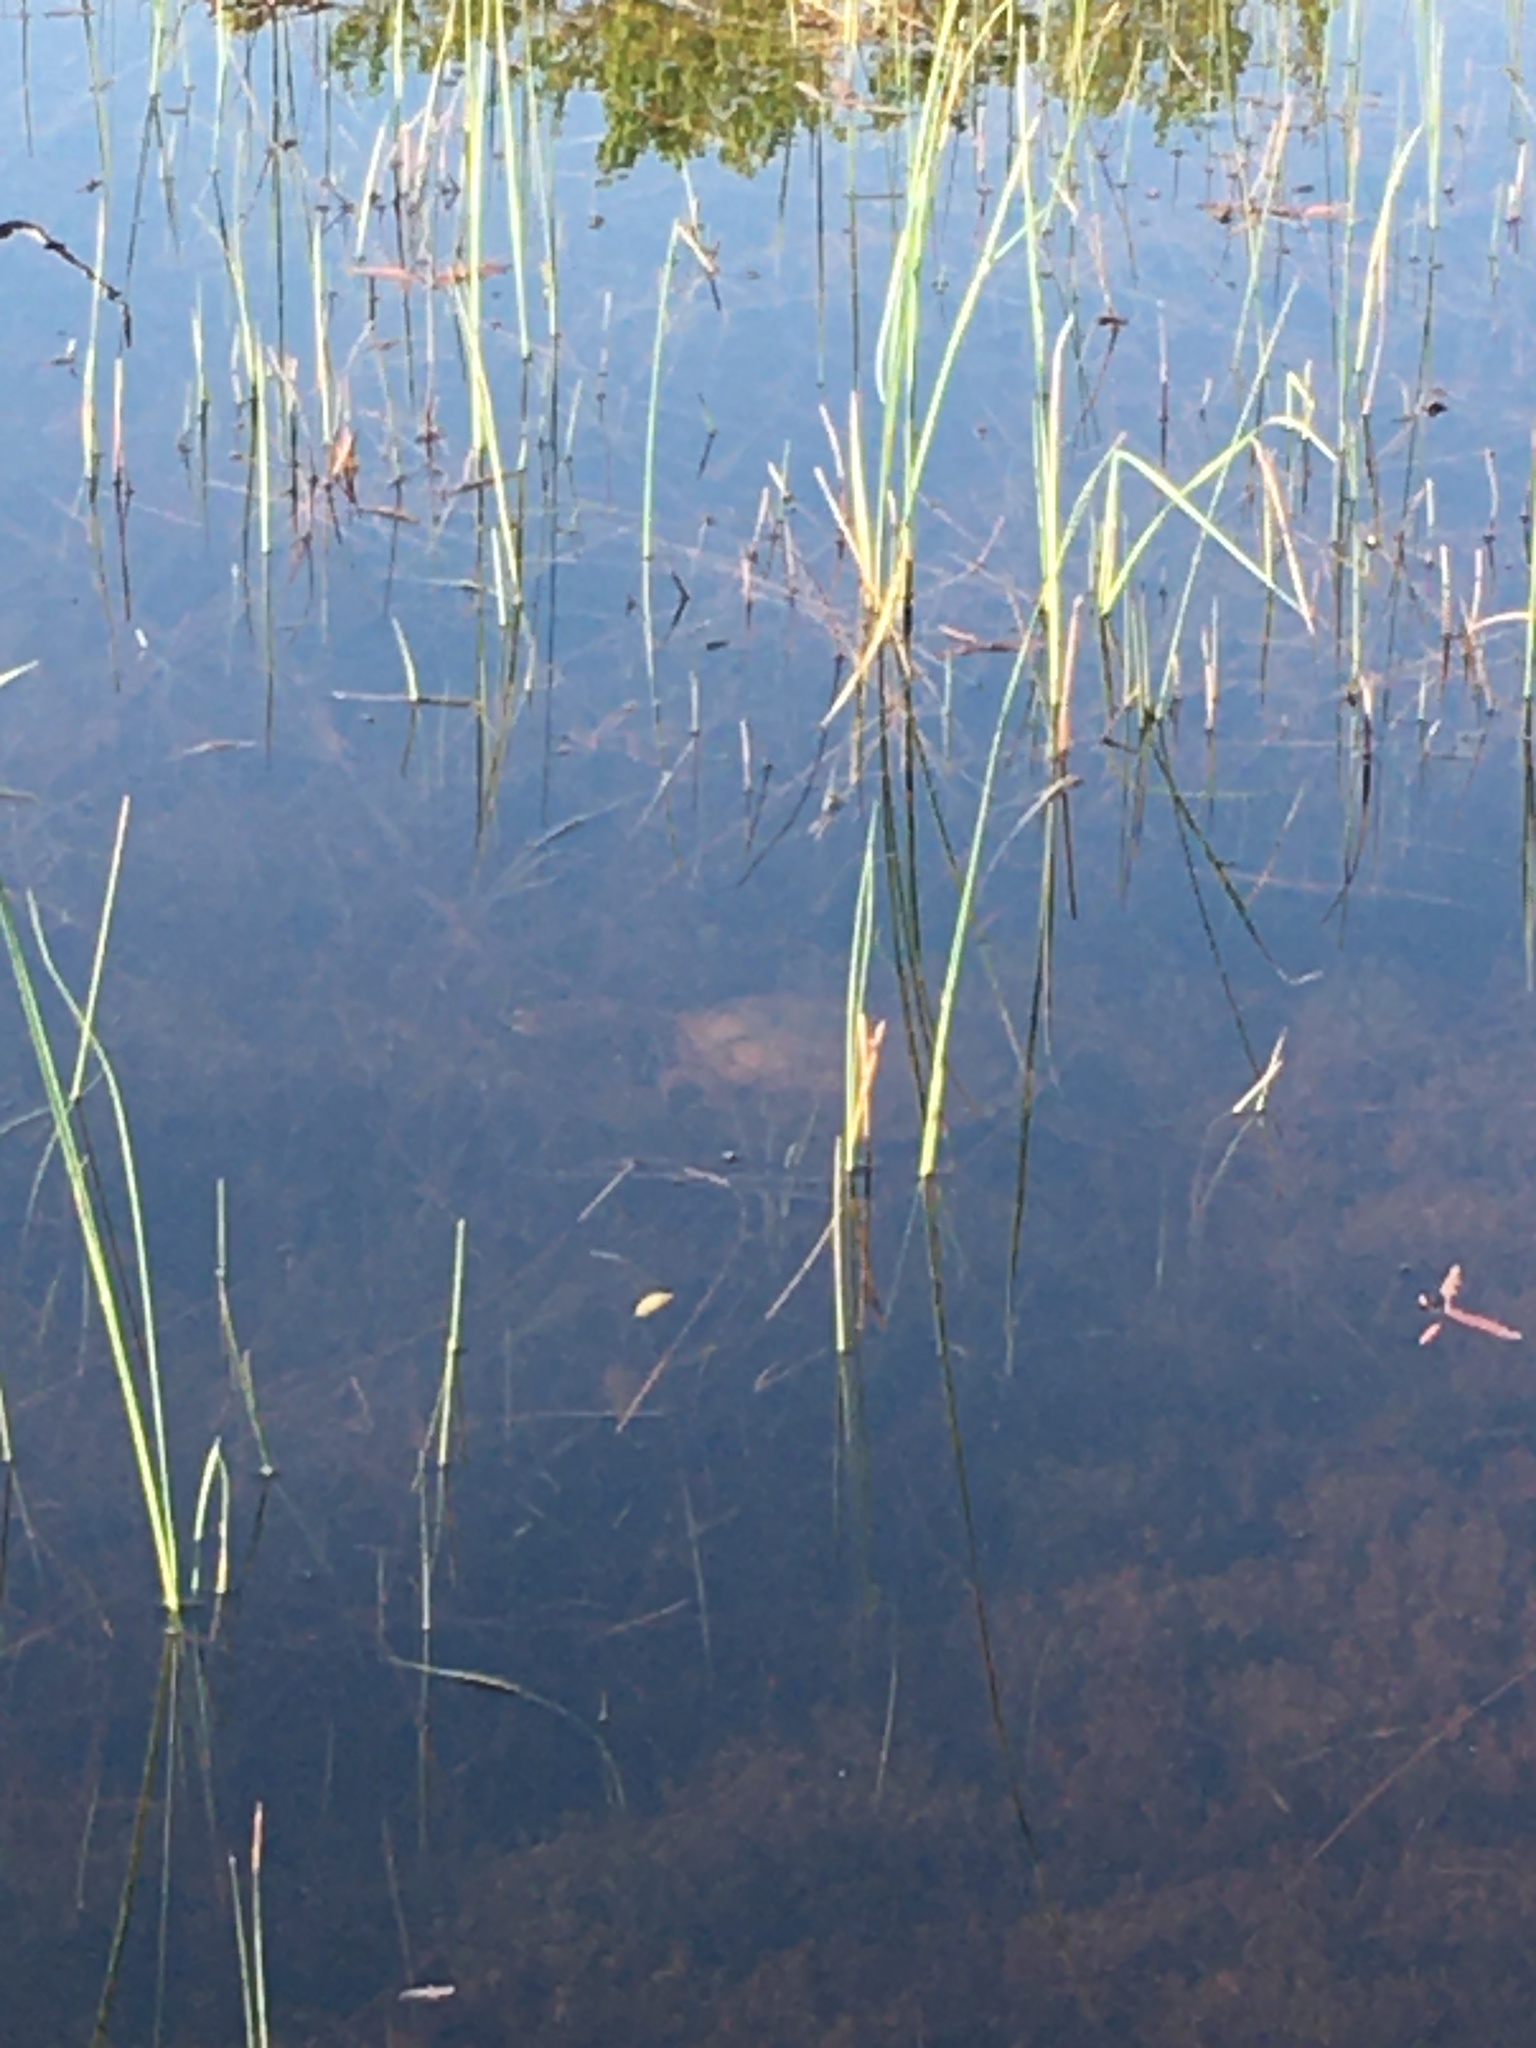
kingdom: Animalia
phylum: Chordata
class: Testudines
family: Chelydridae
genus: Chelydra
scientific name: Chelydra serpentina
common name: Common snapping turtle
